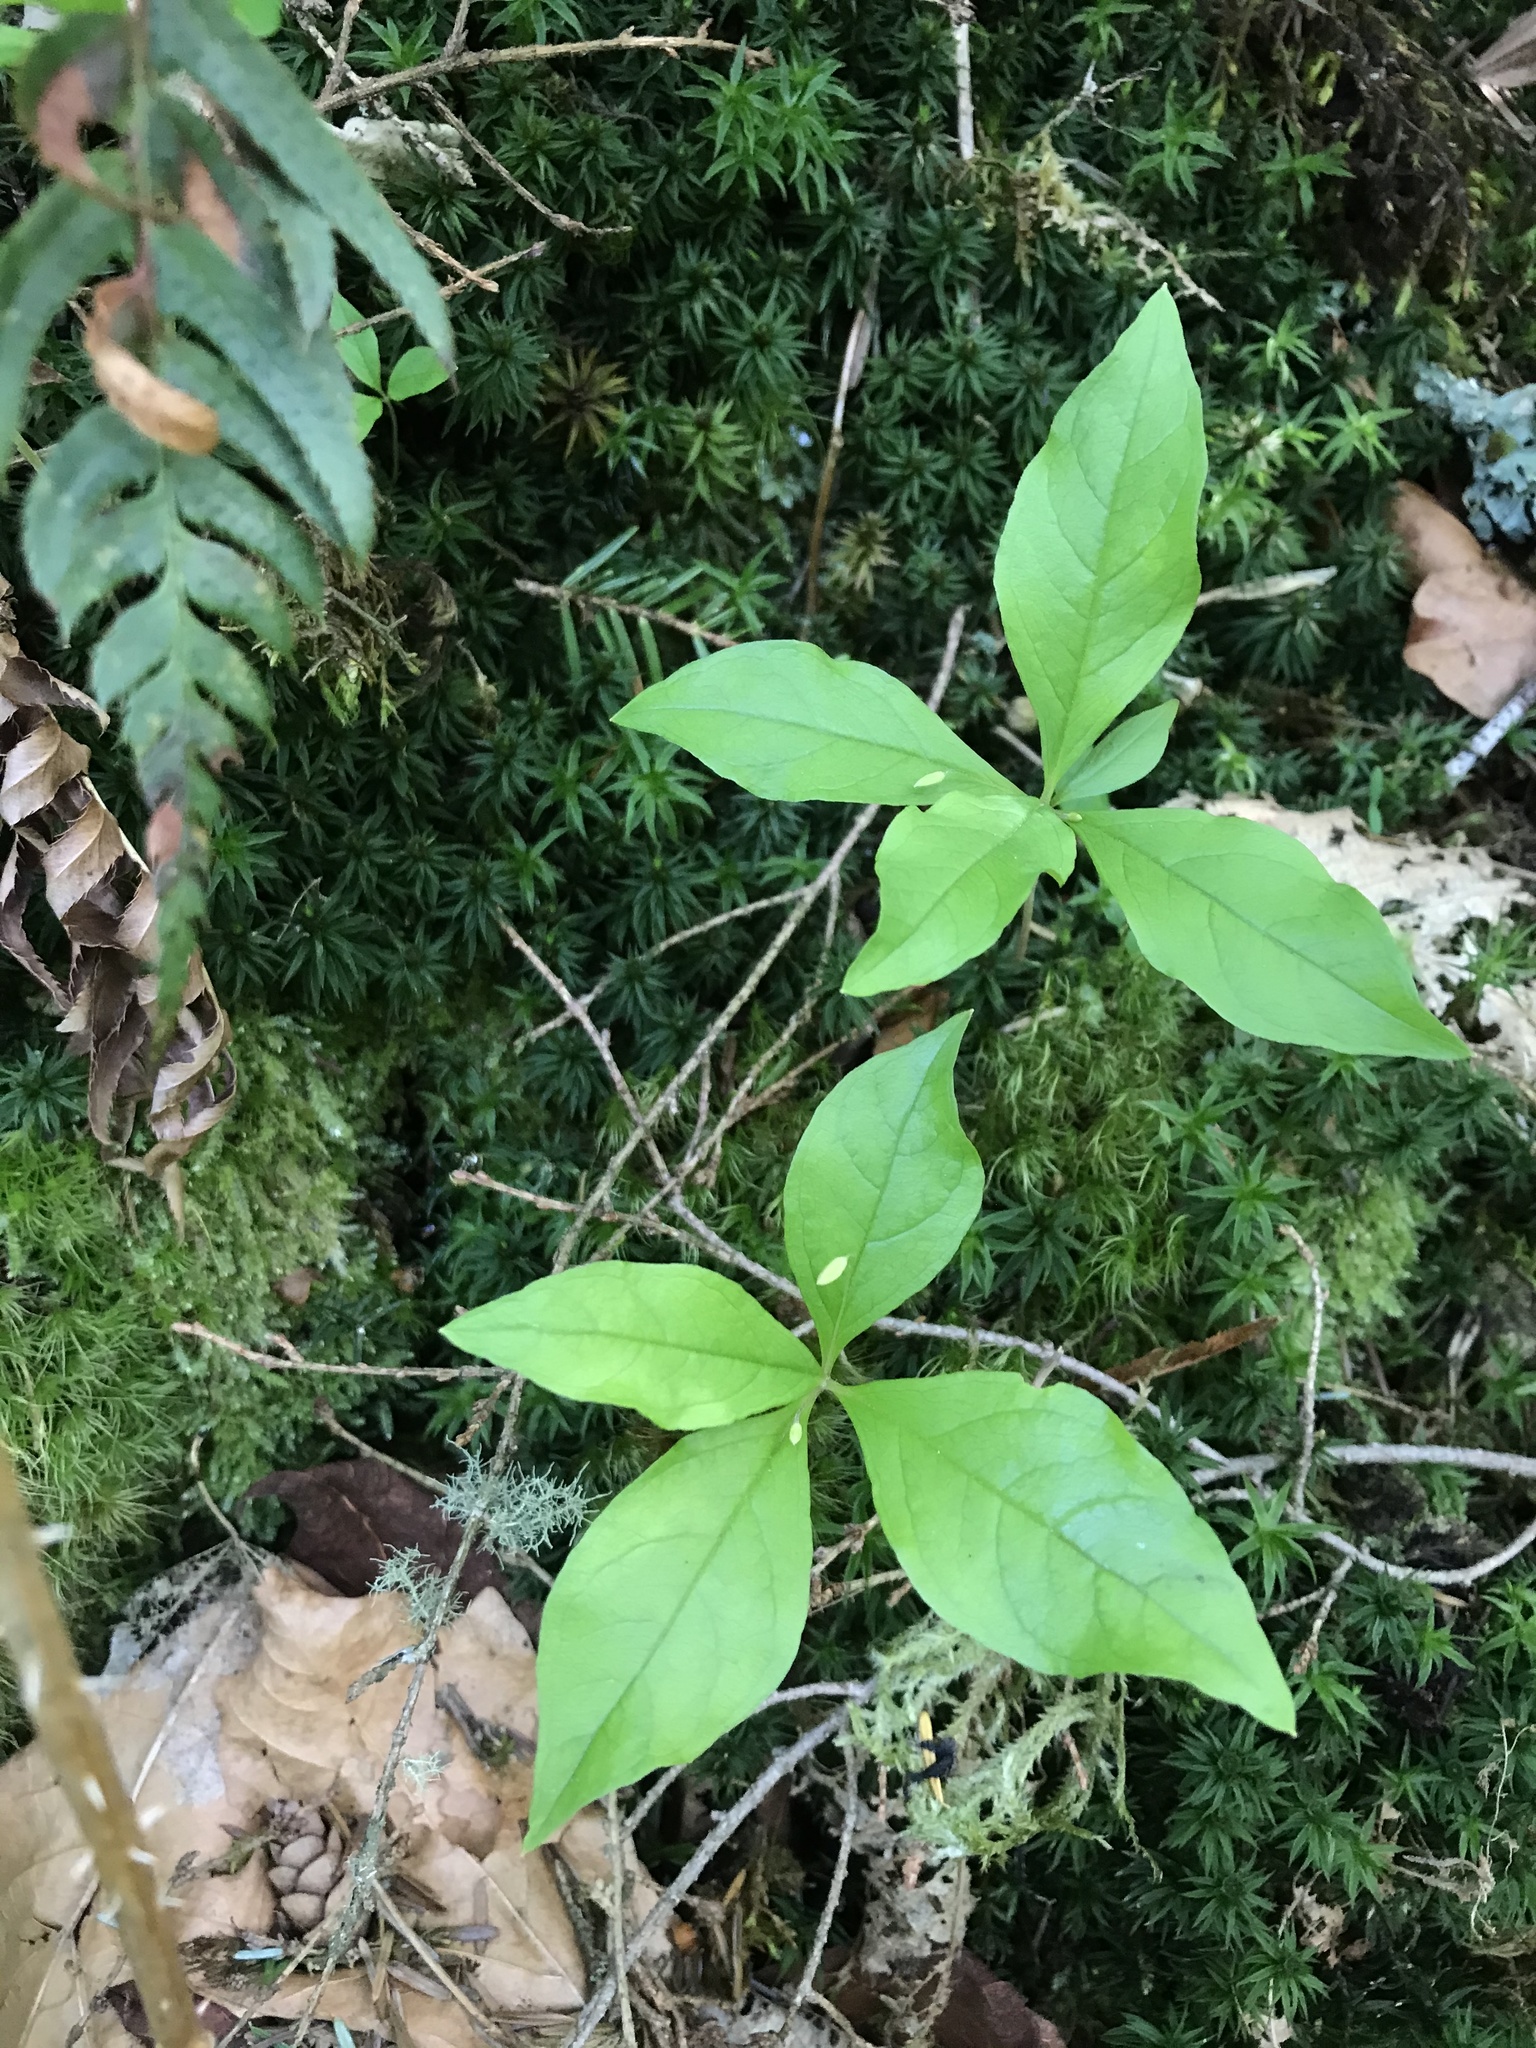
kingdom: Plantae
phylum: Tracheophyta
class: Magnoliopsida
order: Ericales
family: Primulaceae
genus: Lysimachia
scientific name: Lysimachia latifolia
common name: Pacific starflower
